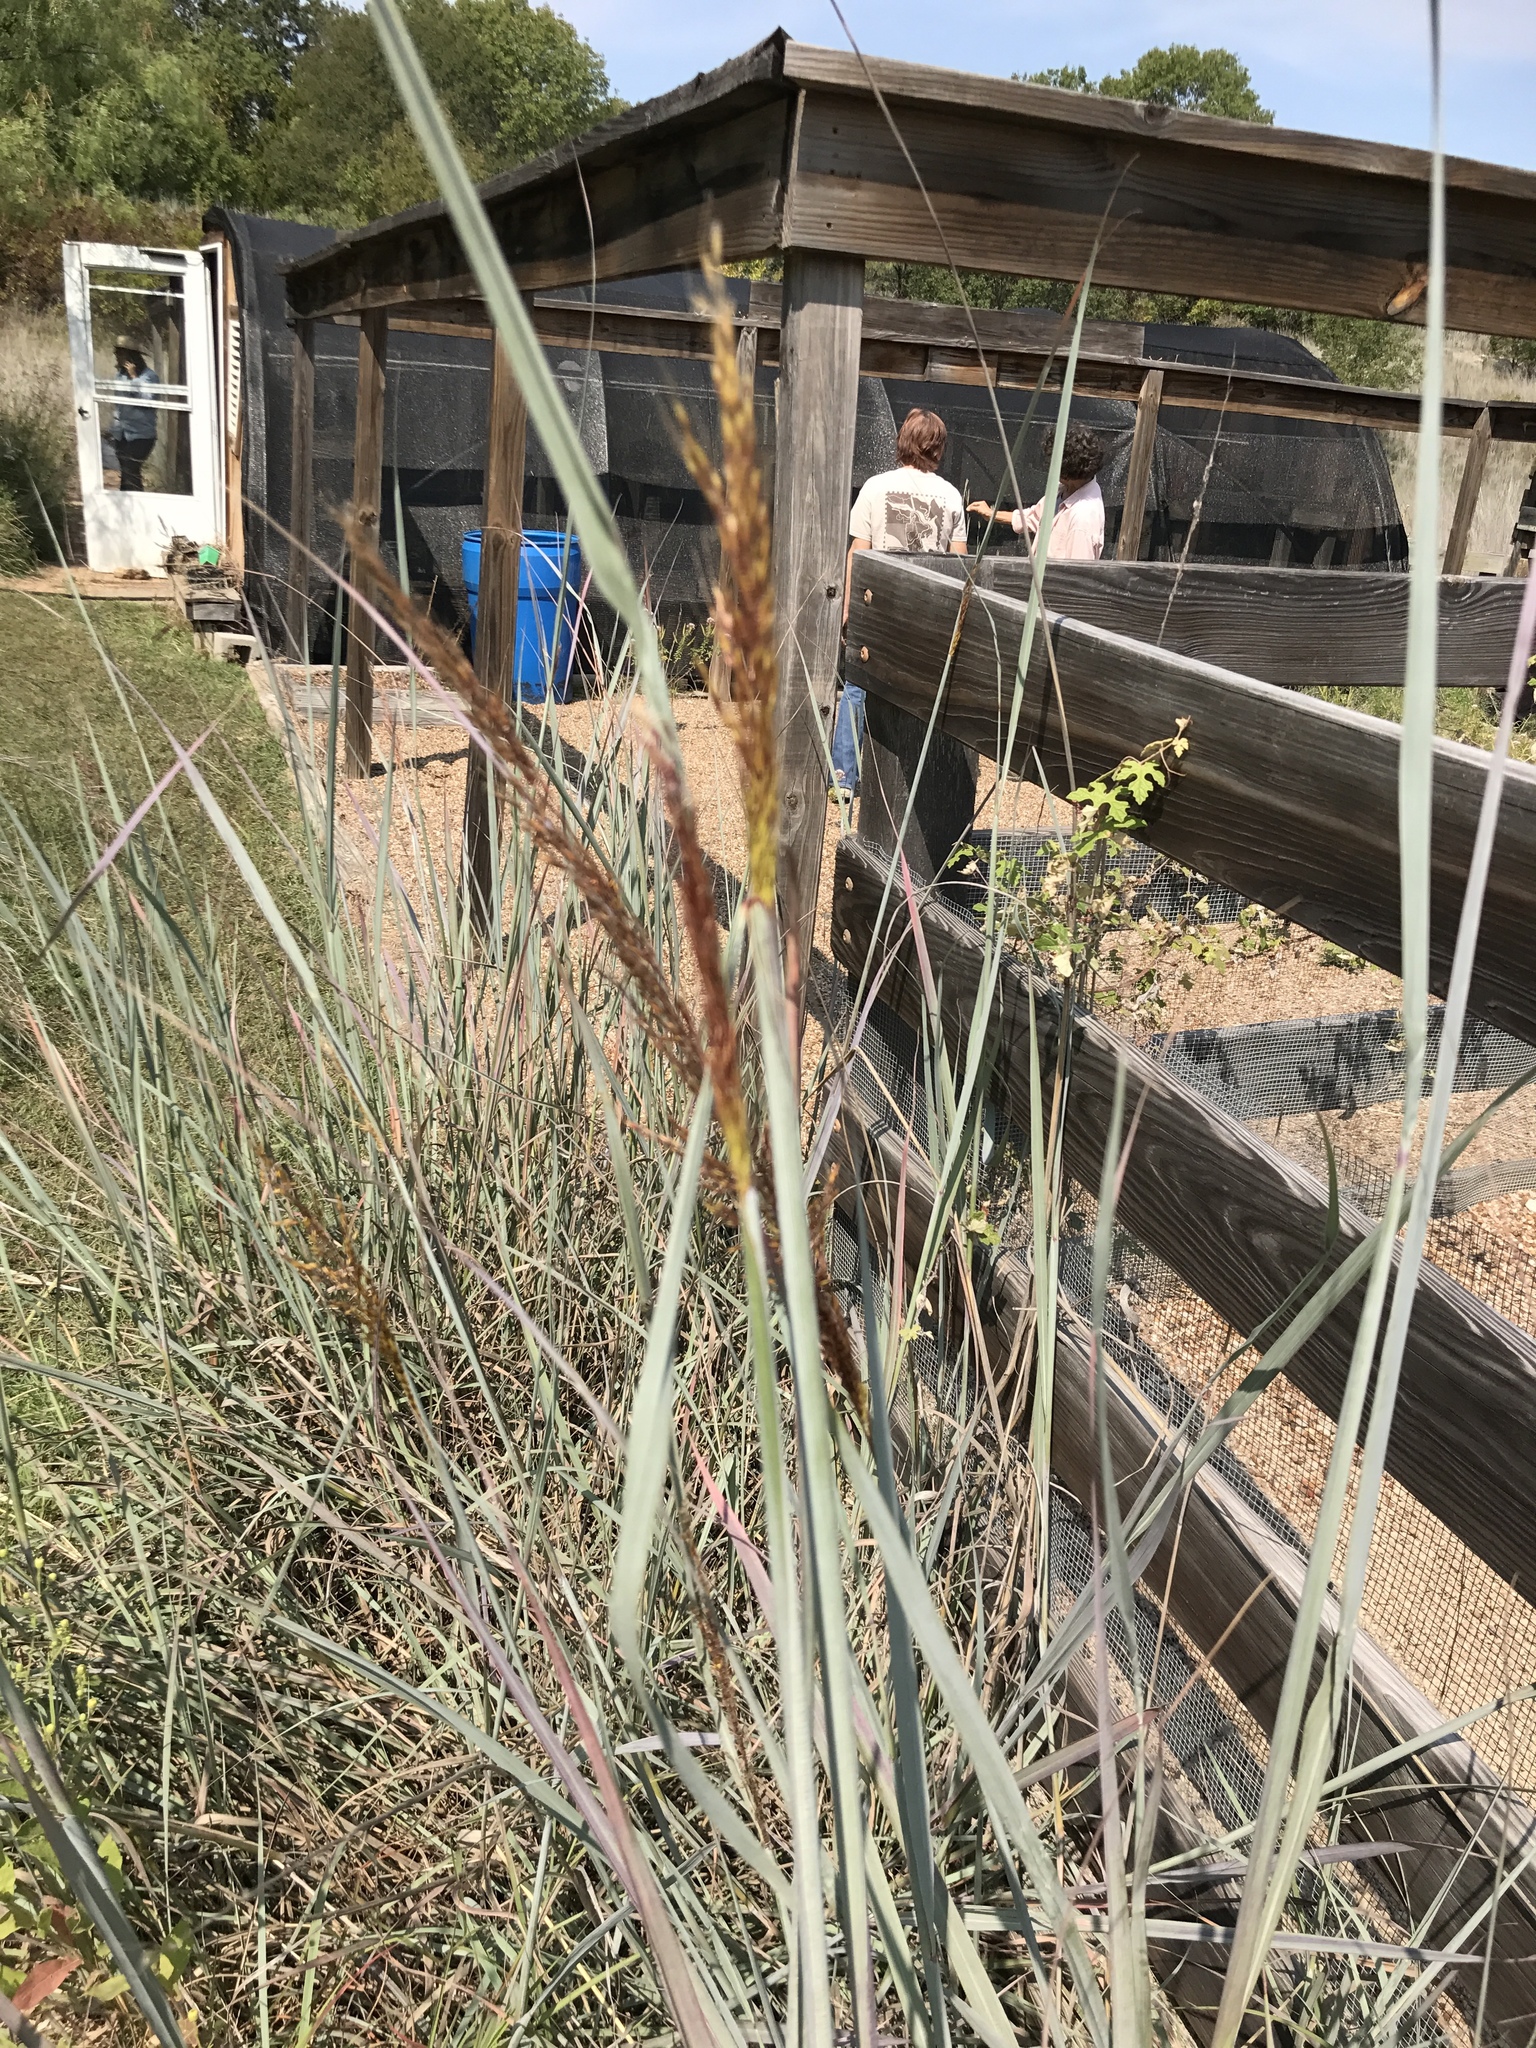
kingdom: Plantae
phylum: Tracheophyta
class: Liliopsida
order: Poales
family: Poaceae
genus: Sorghastrum
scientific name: Sorghastrum nutans
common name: Indian grass
